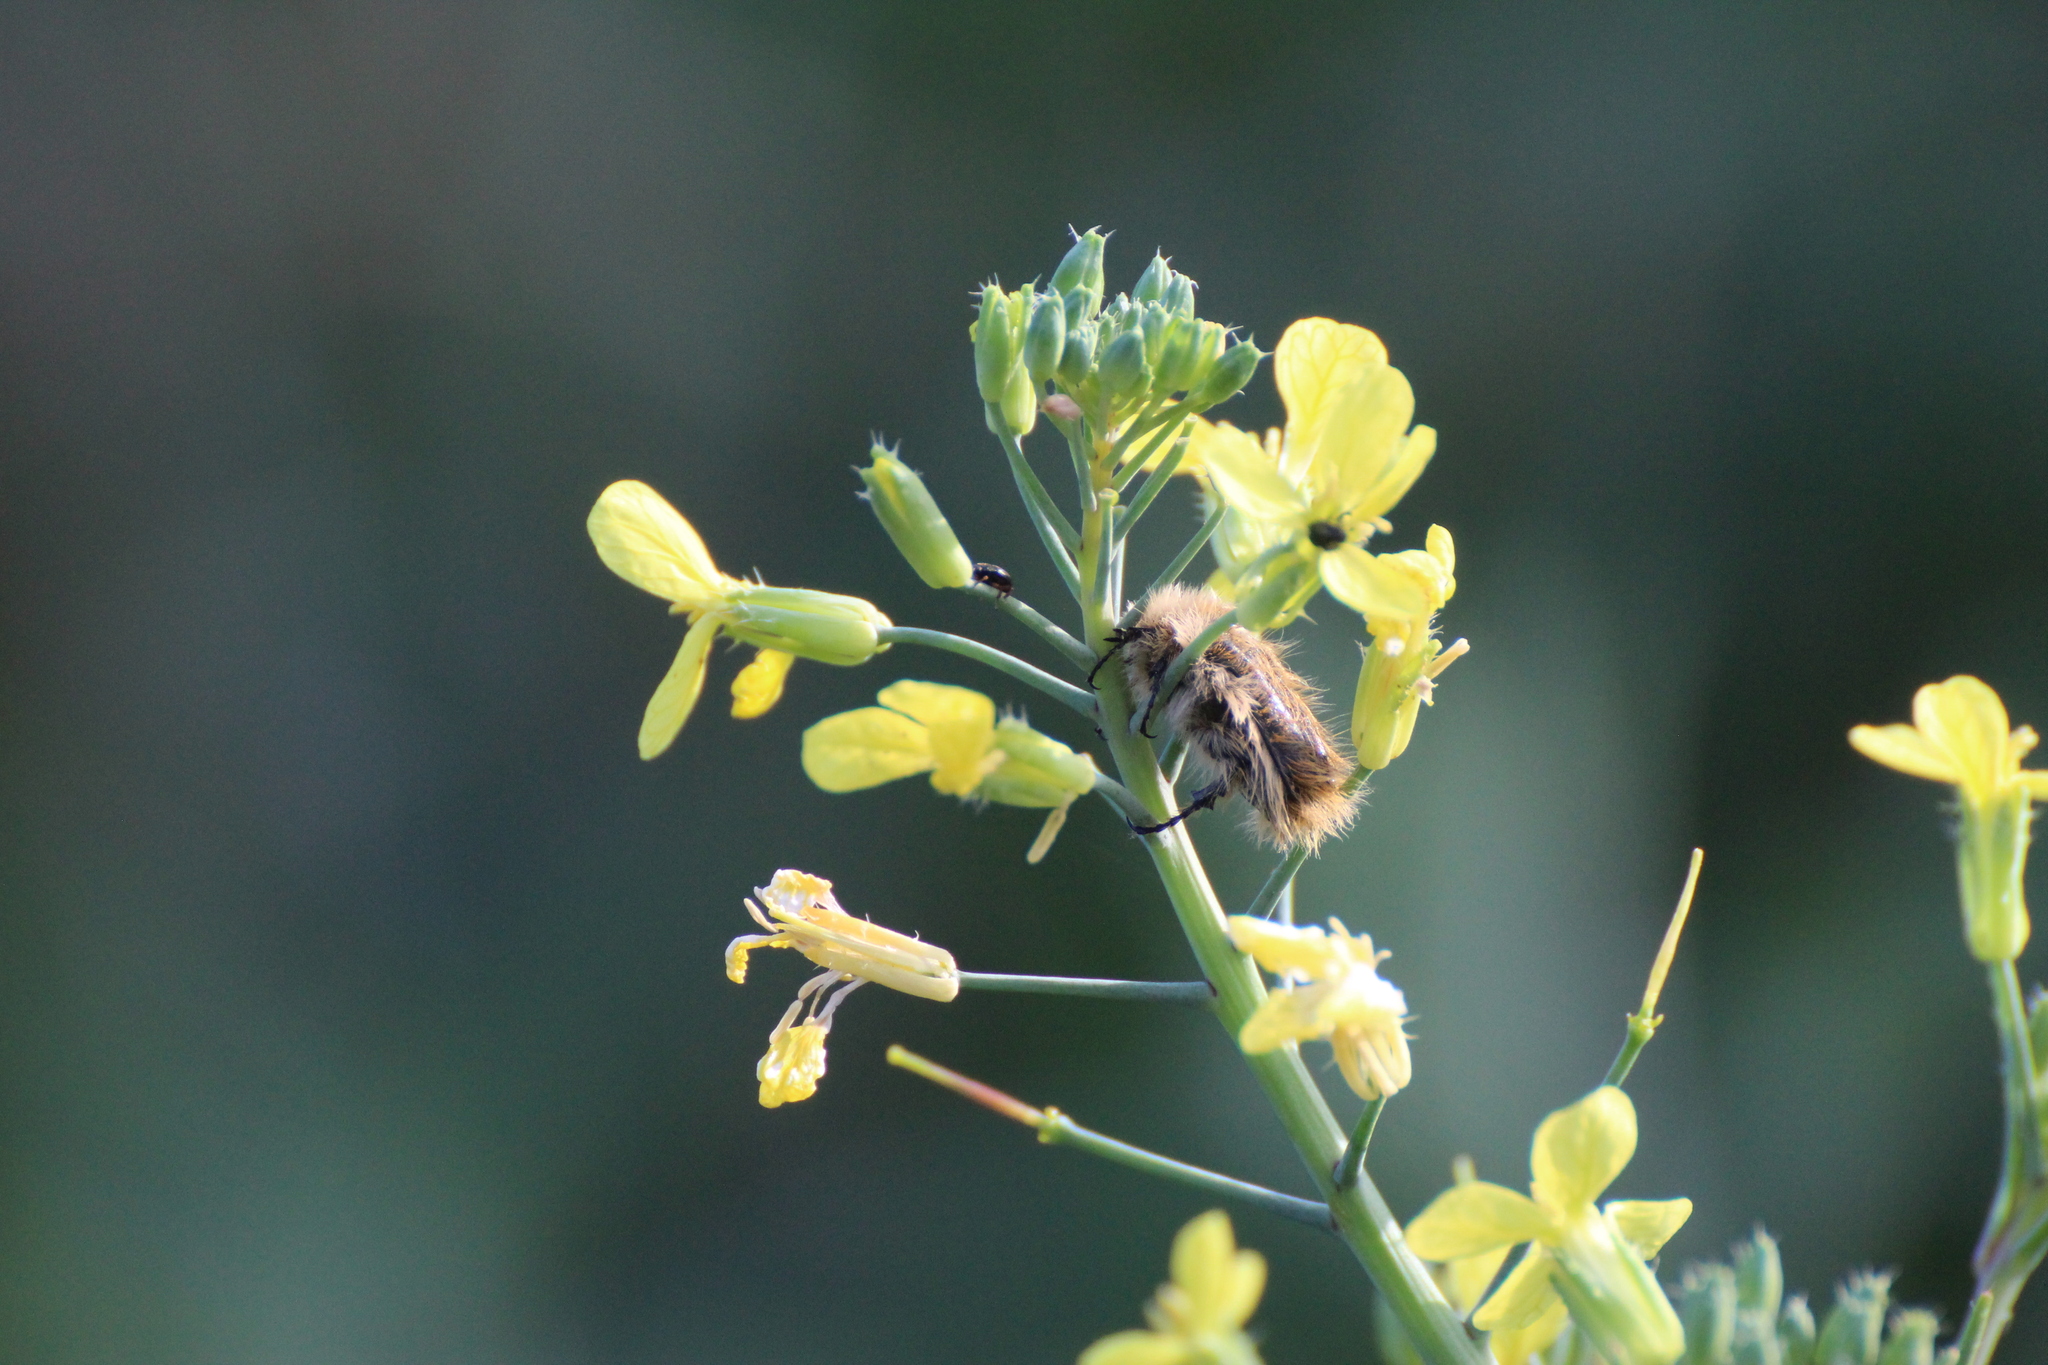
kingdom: Animalia
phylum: Arthropoda
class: Insecta
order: Coleoptera
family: Scarabaeidae
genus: Tropinota
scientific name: Tropinota squalida
